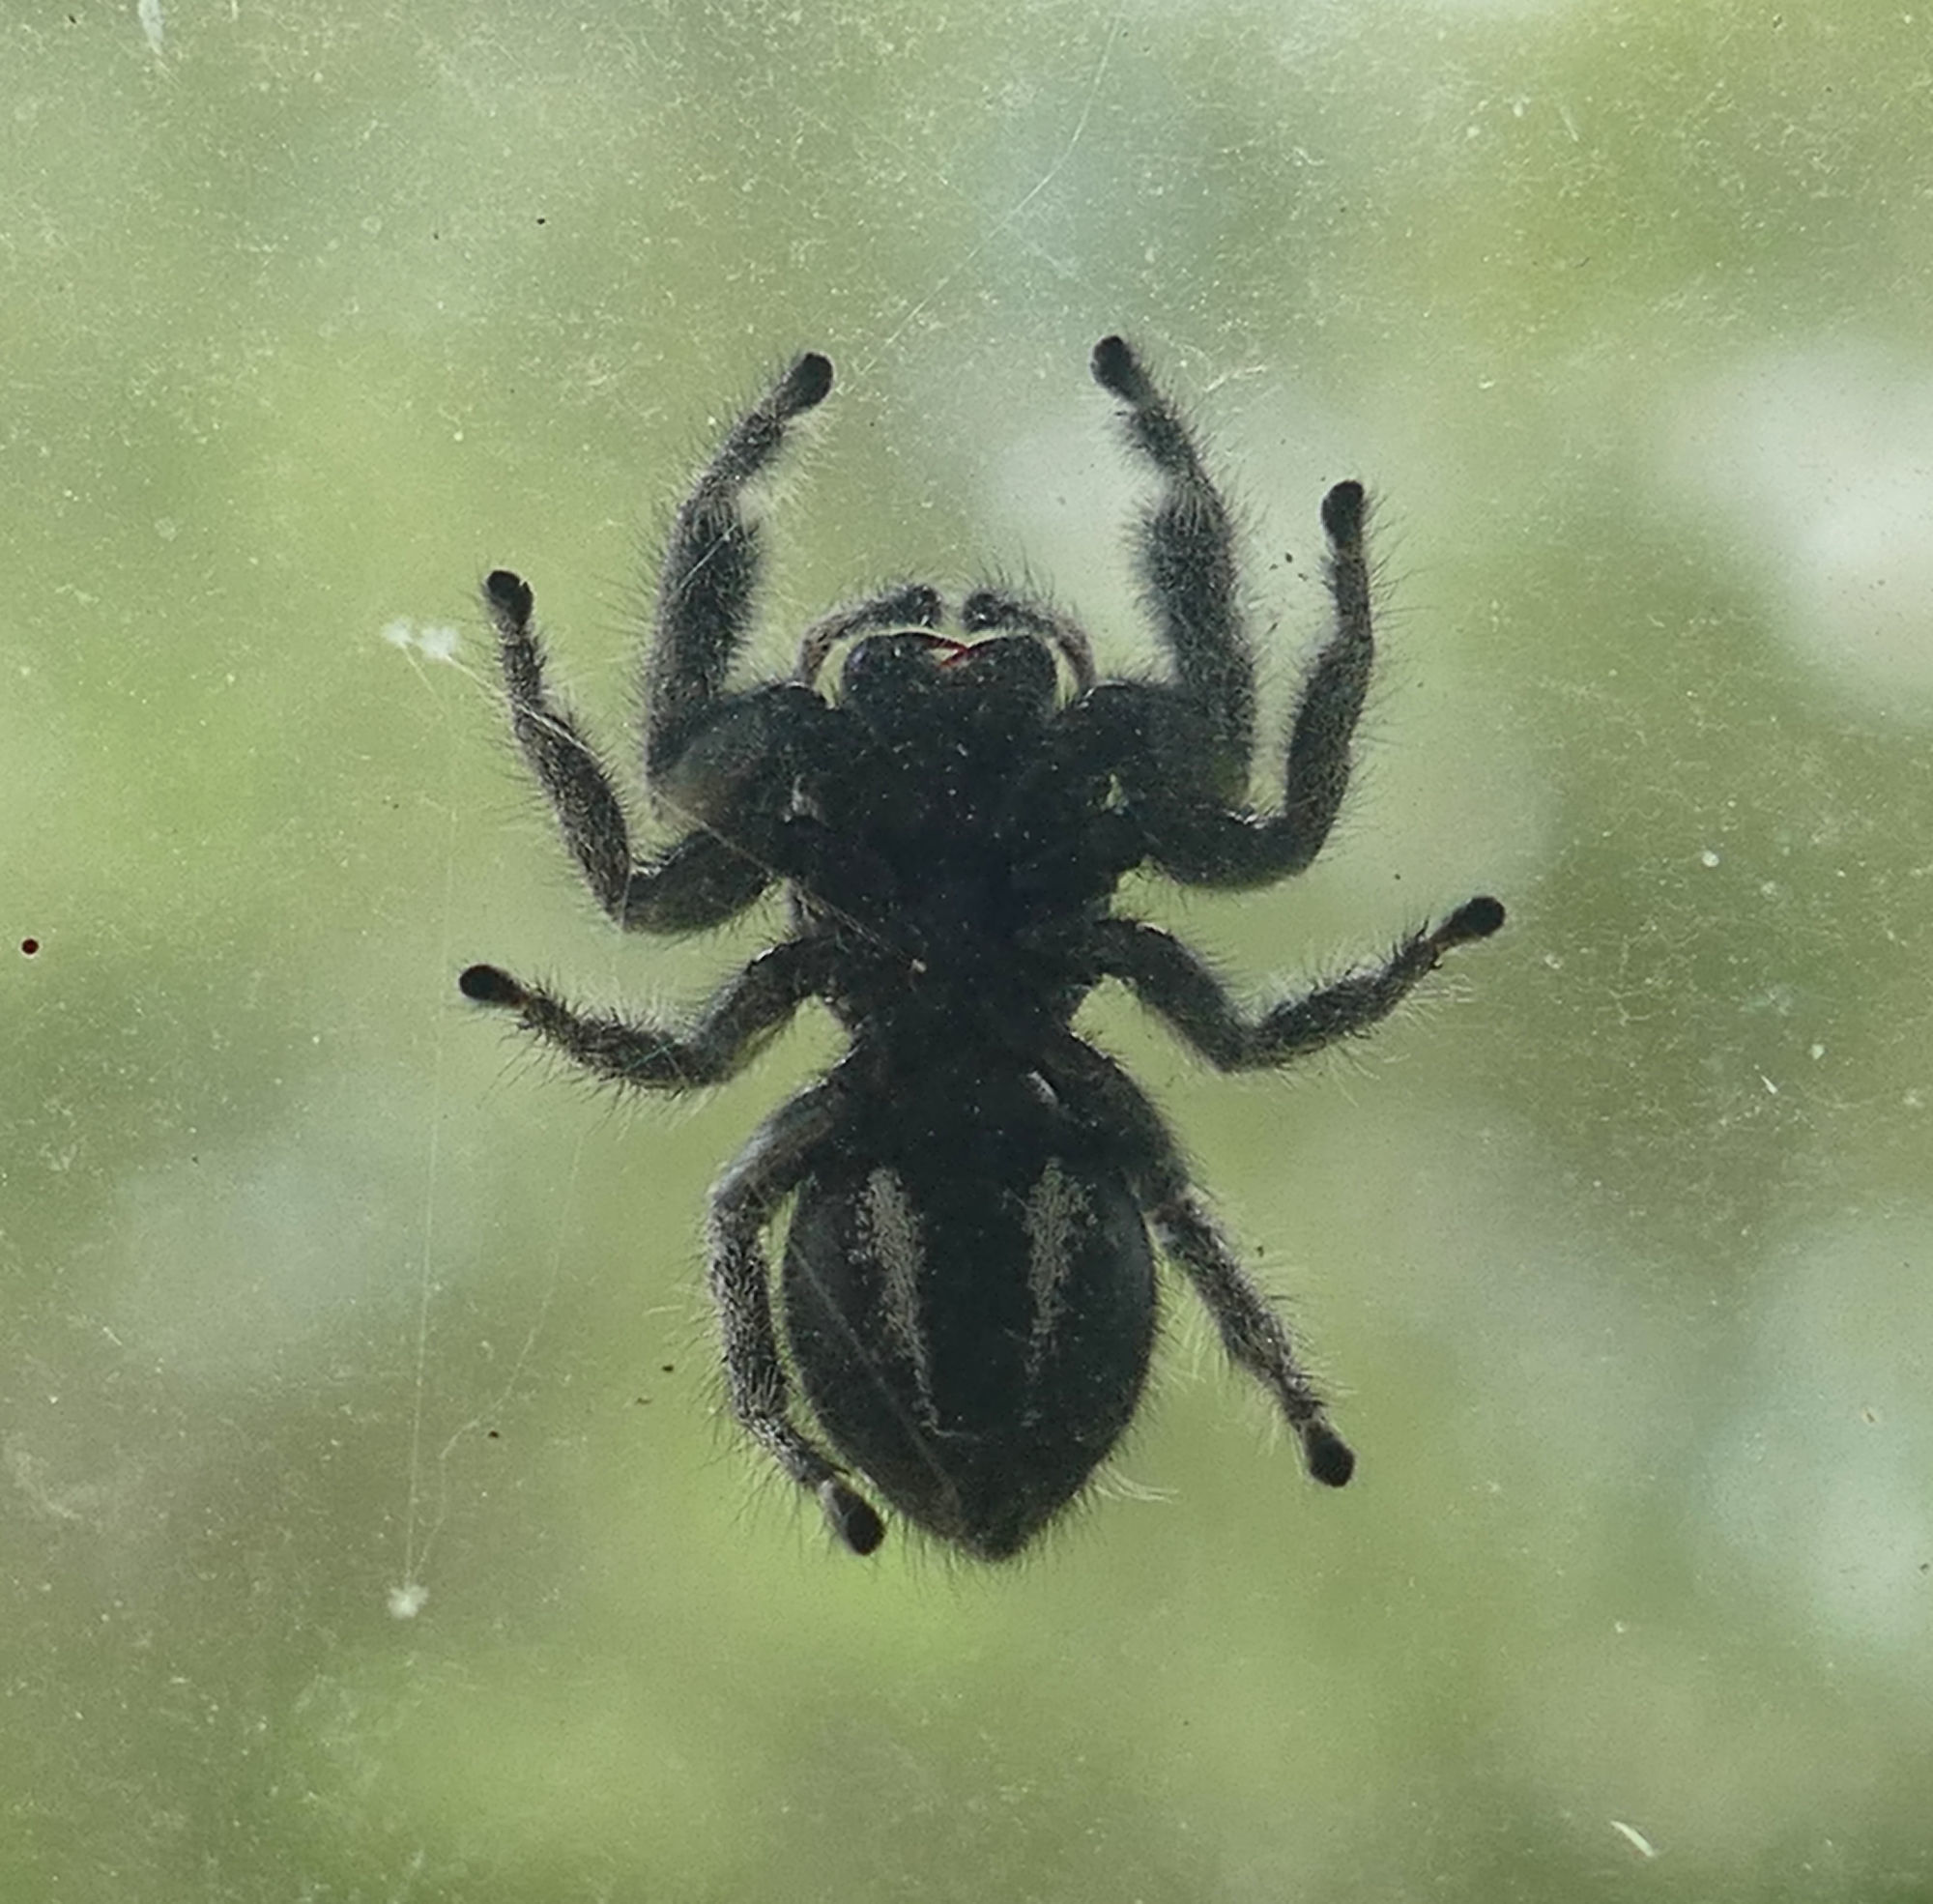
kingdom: Animalia
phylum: Arthropoda
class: Arachnida
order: Araneae
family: Salticidae
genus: Phidippus
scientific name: Phidippus audax
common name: Bold jumper
